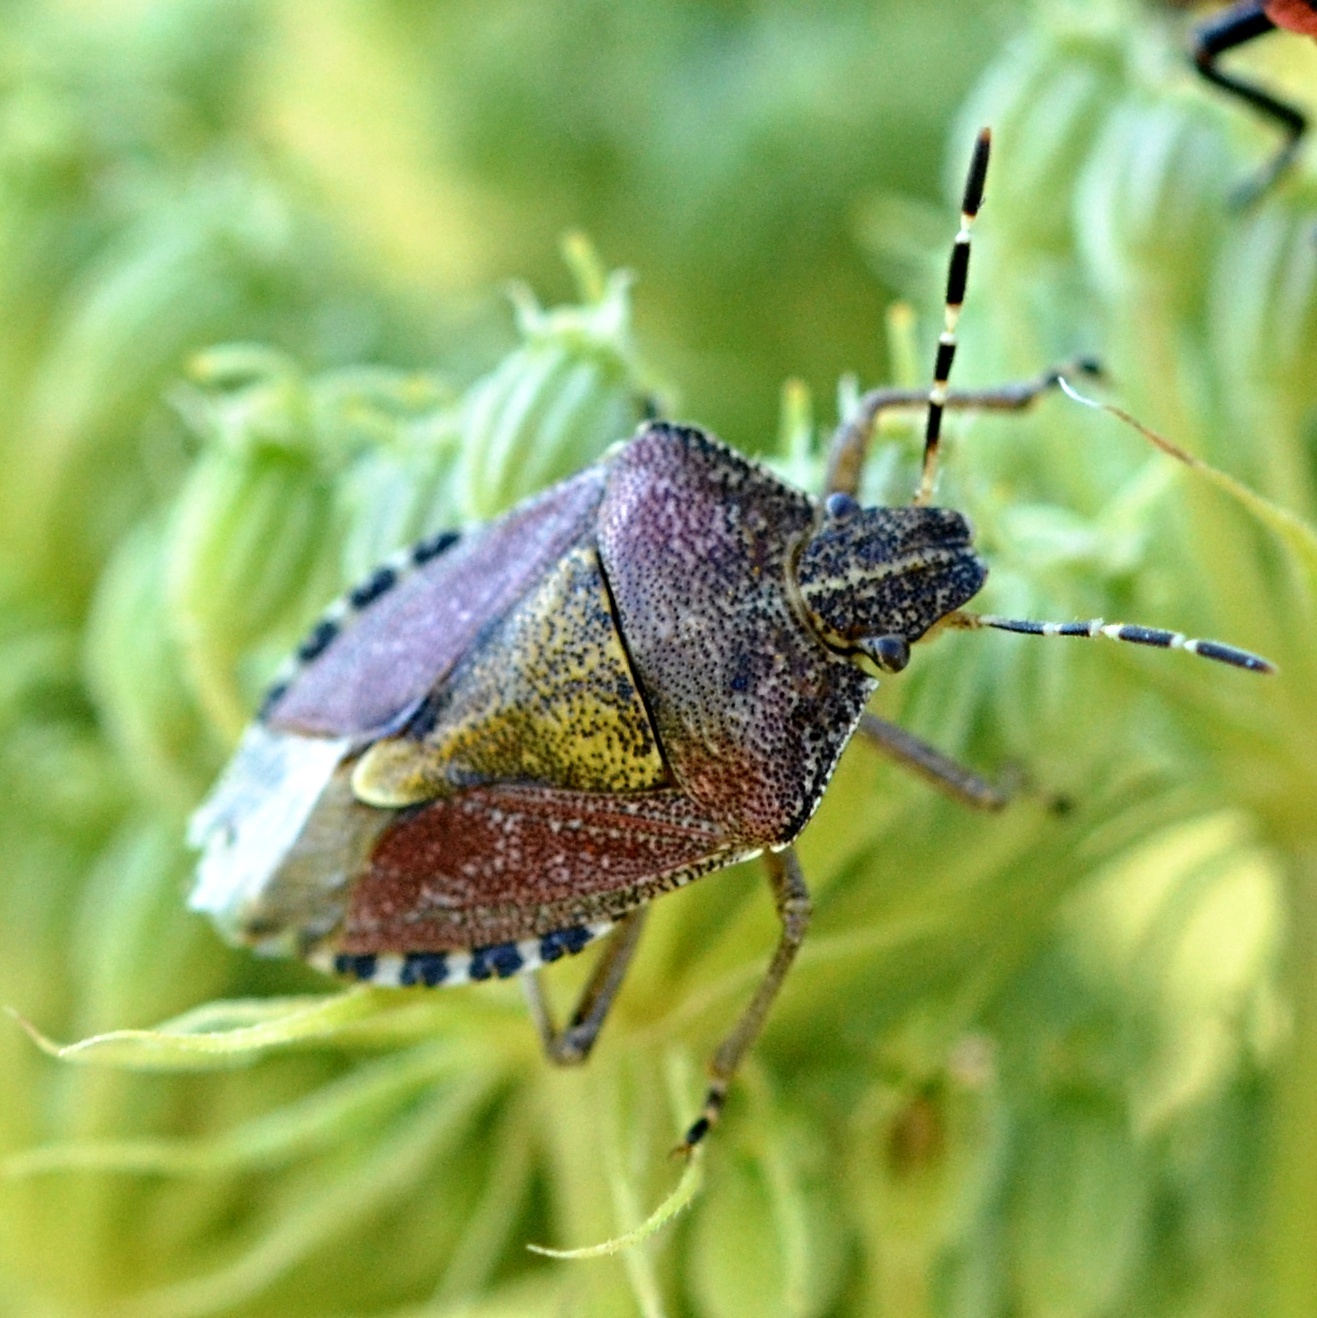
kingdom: Animalia
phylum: Arthropoda
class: Insecta
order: Hemiptera
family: Pentatomidae
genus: Dolycoris
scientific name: Dolycoris baccarum
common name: Sloe bug
